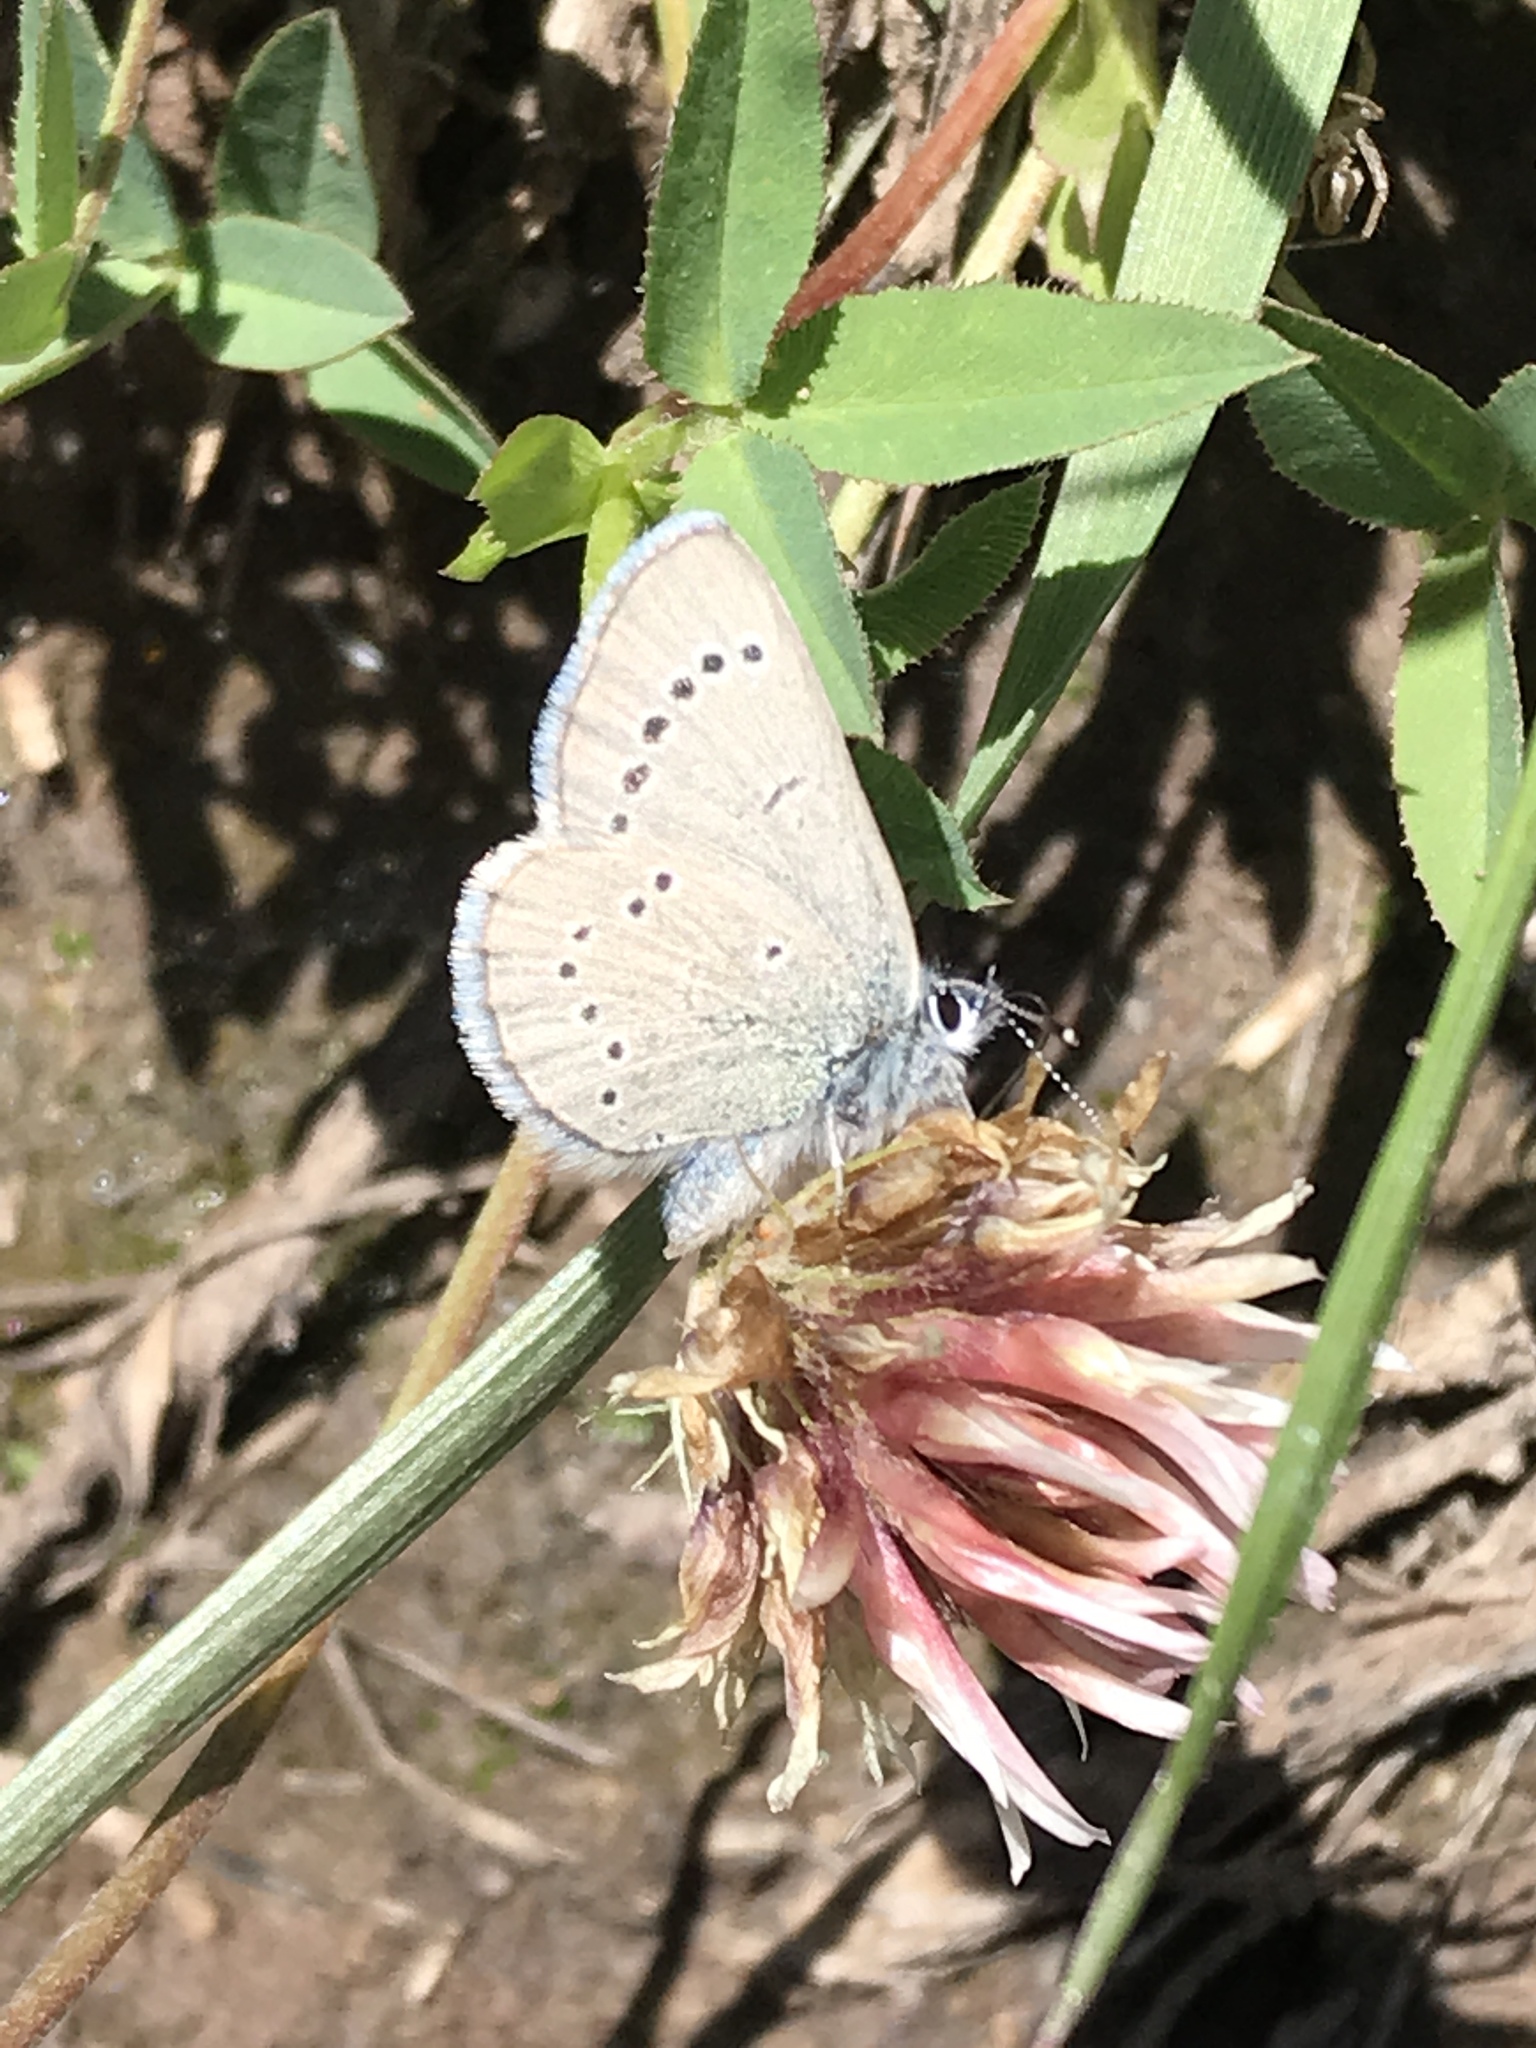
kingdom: Animalia
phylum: Arthropoda
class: Insecta
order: Lepidoptera
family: Lycaenidae
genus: Glaucopsyche
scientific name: Glaucopsyche lygdamus
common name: Silvery blue
